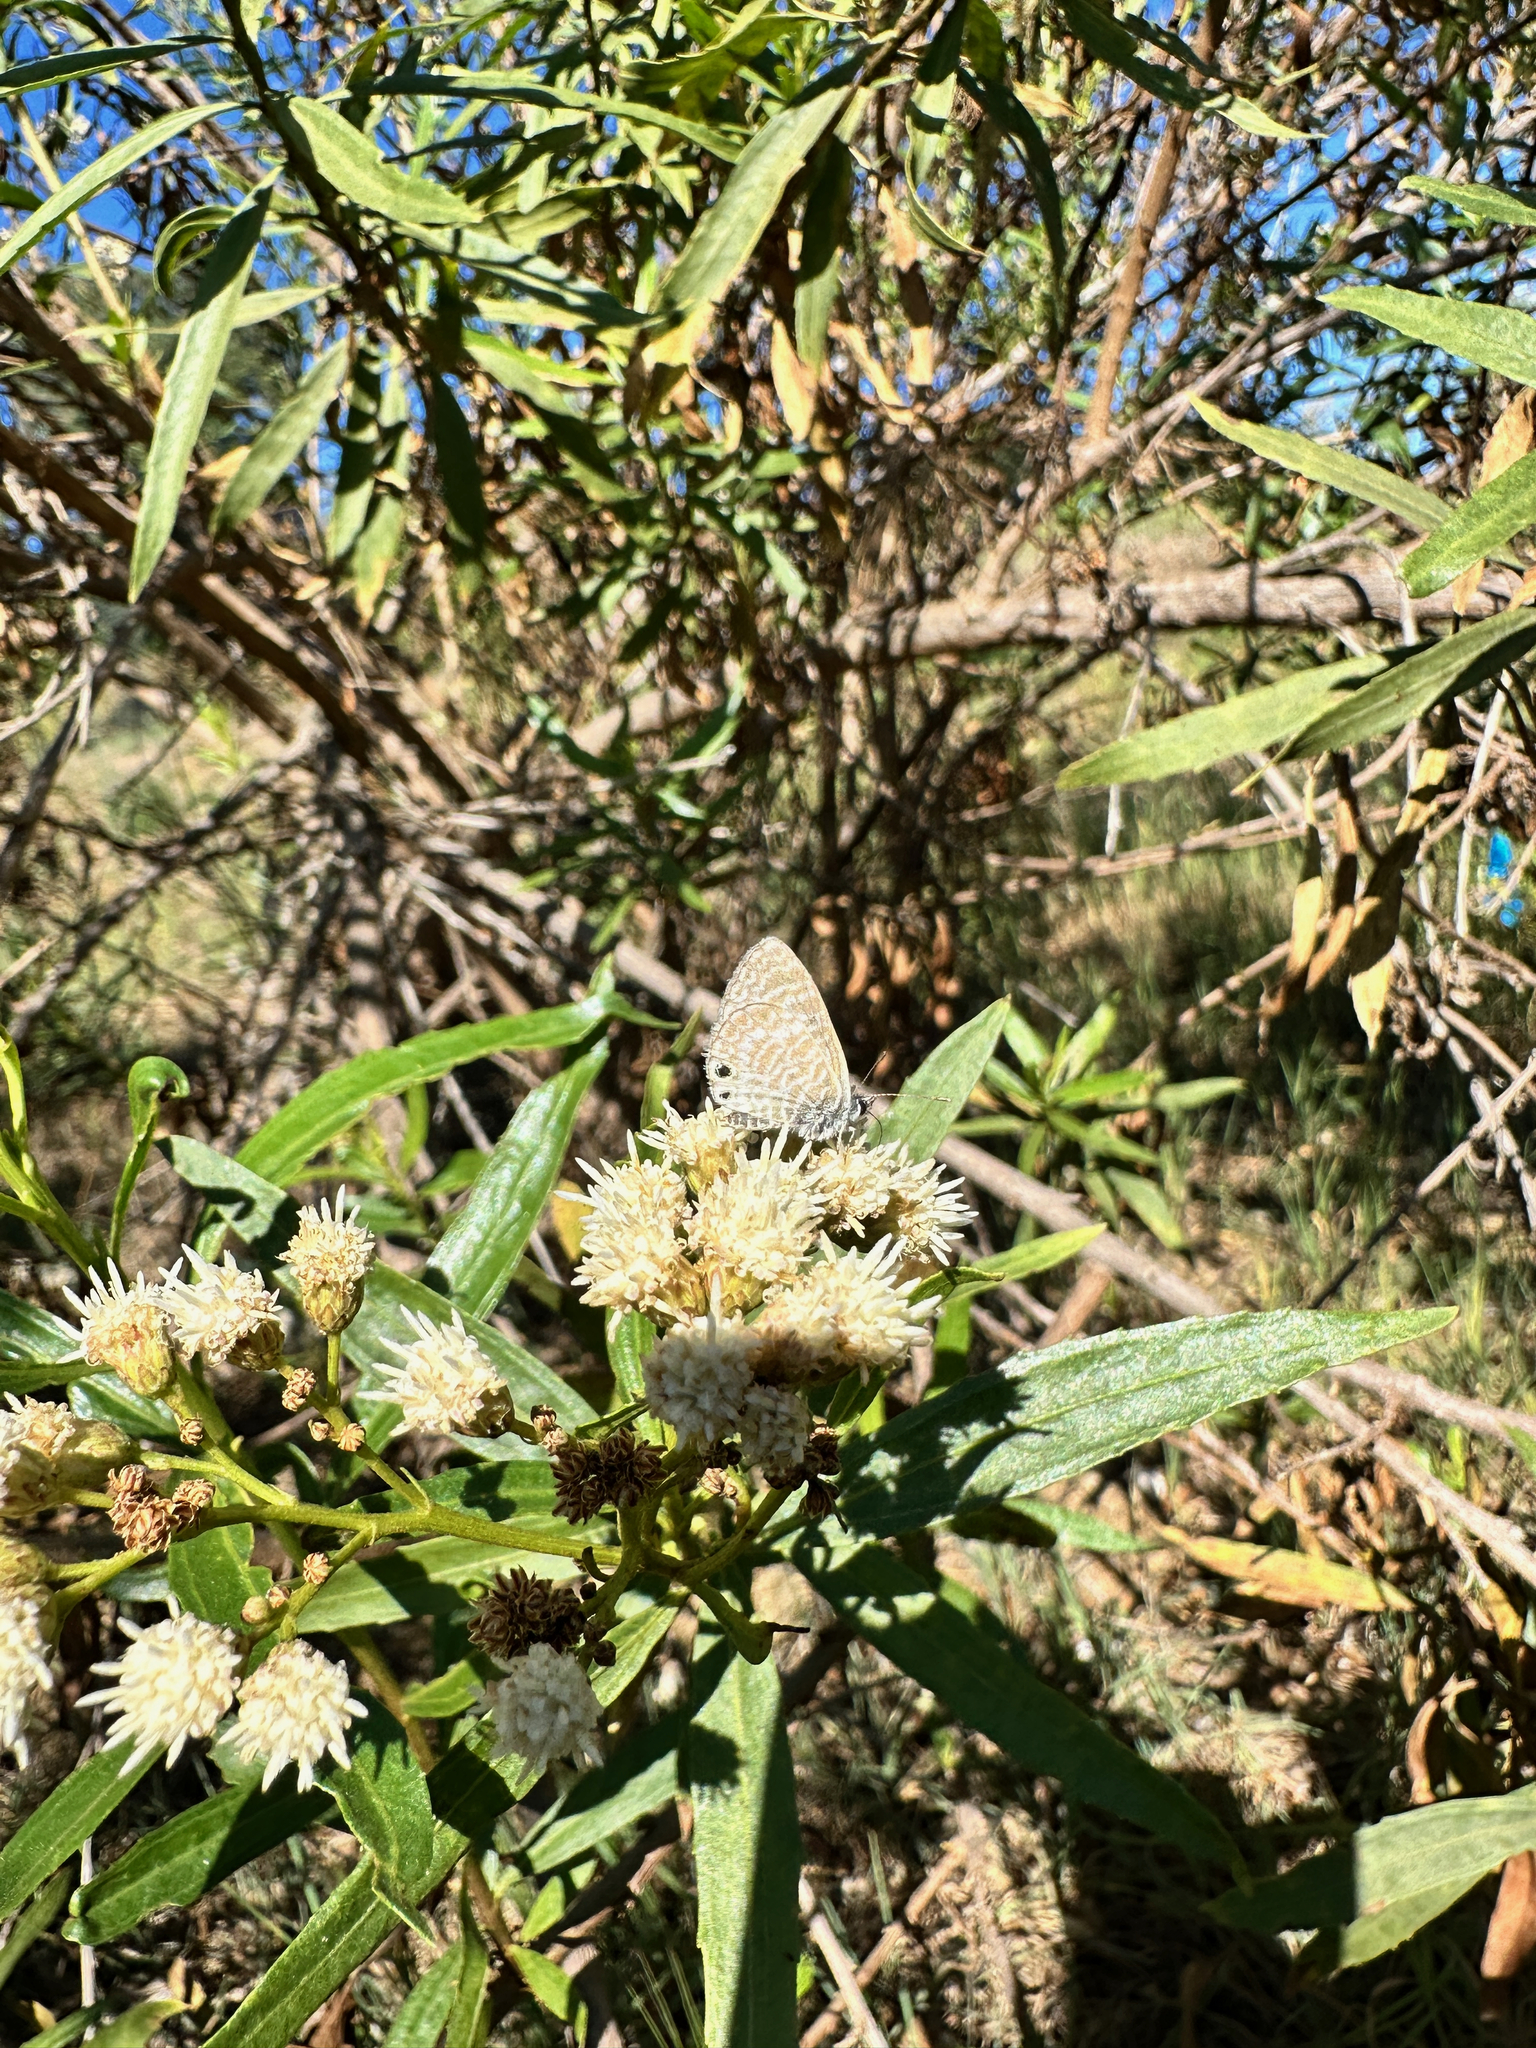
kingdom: Animalia
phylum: Arthropoda
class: Insecta
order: Lepidoptera
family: Lycaenidae
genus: Leptotes
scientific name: Leptotes marina
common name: Marine blue
